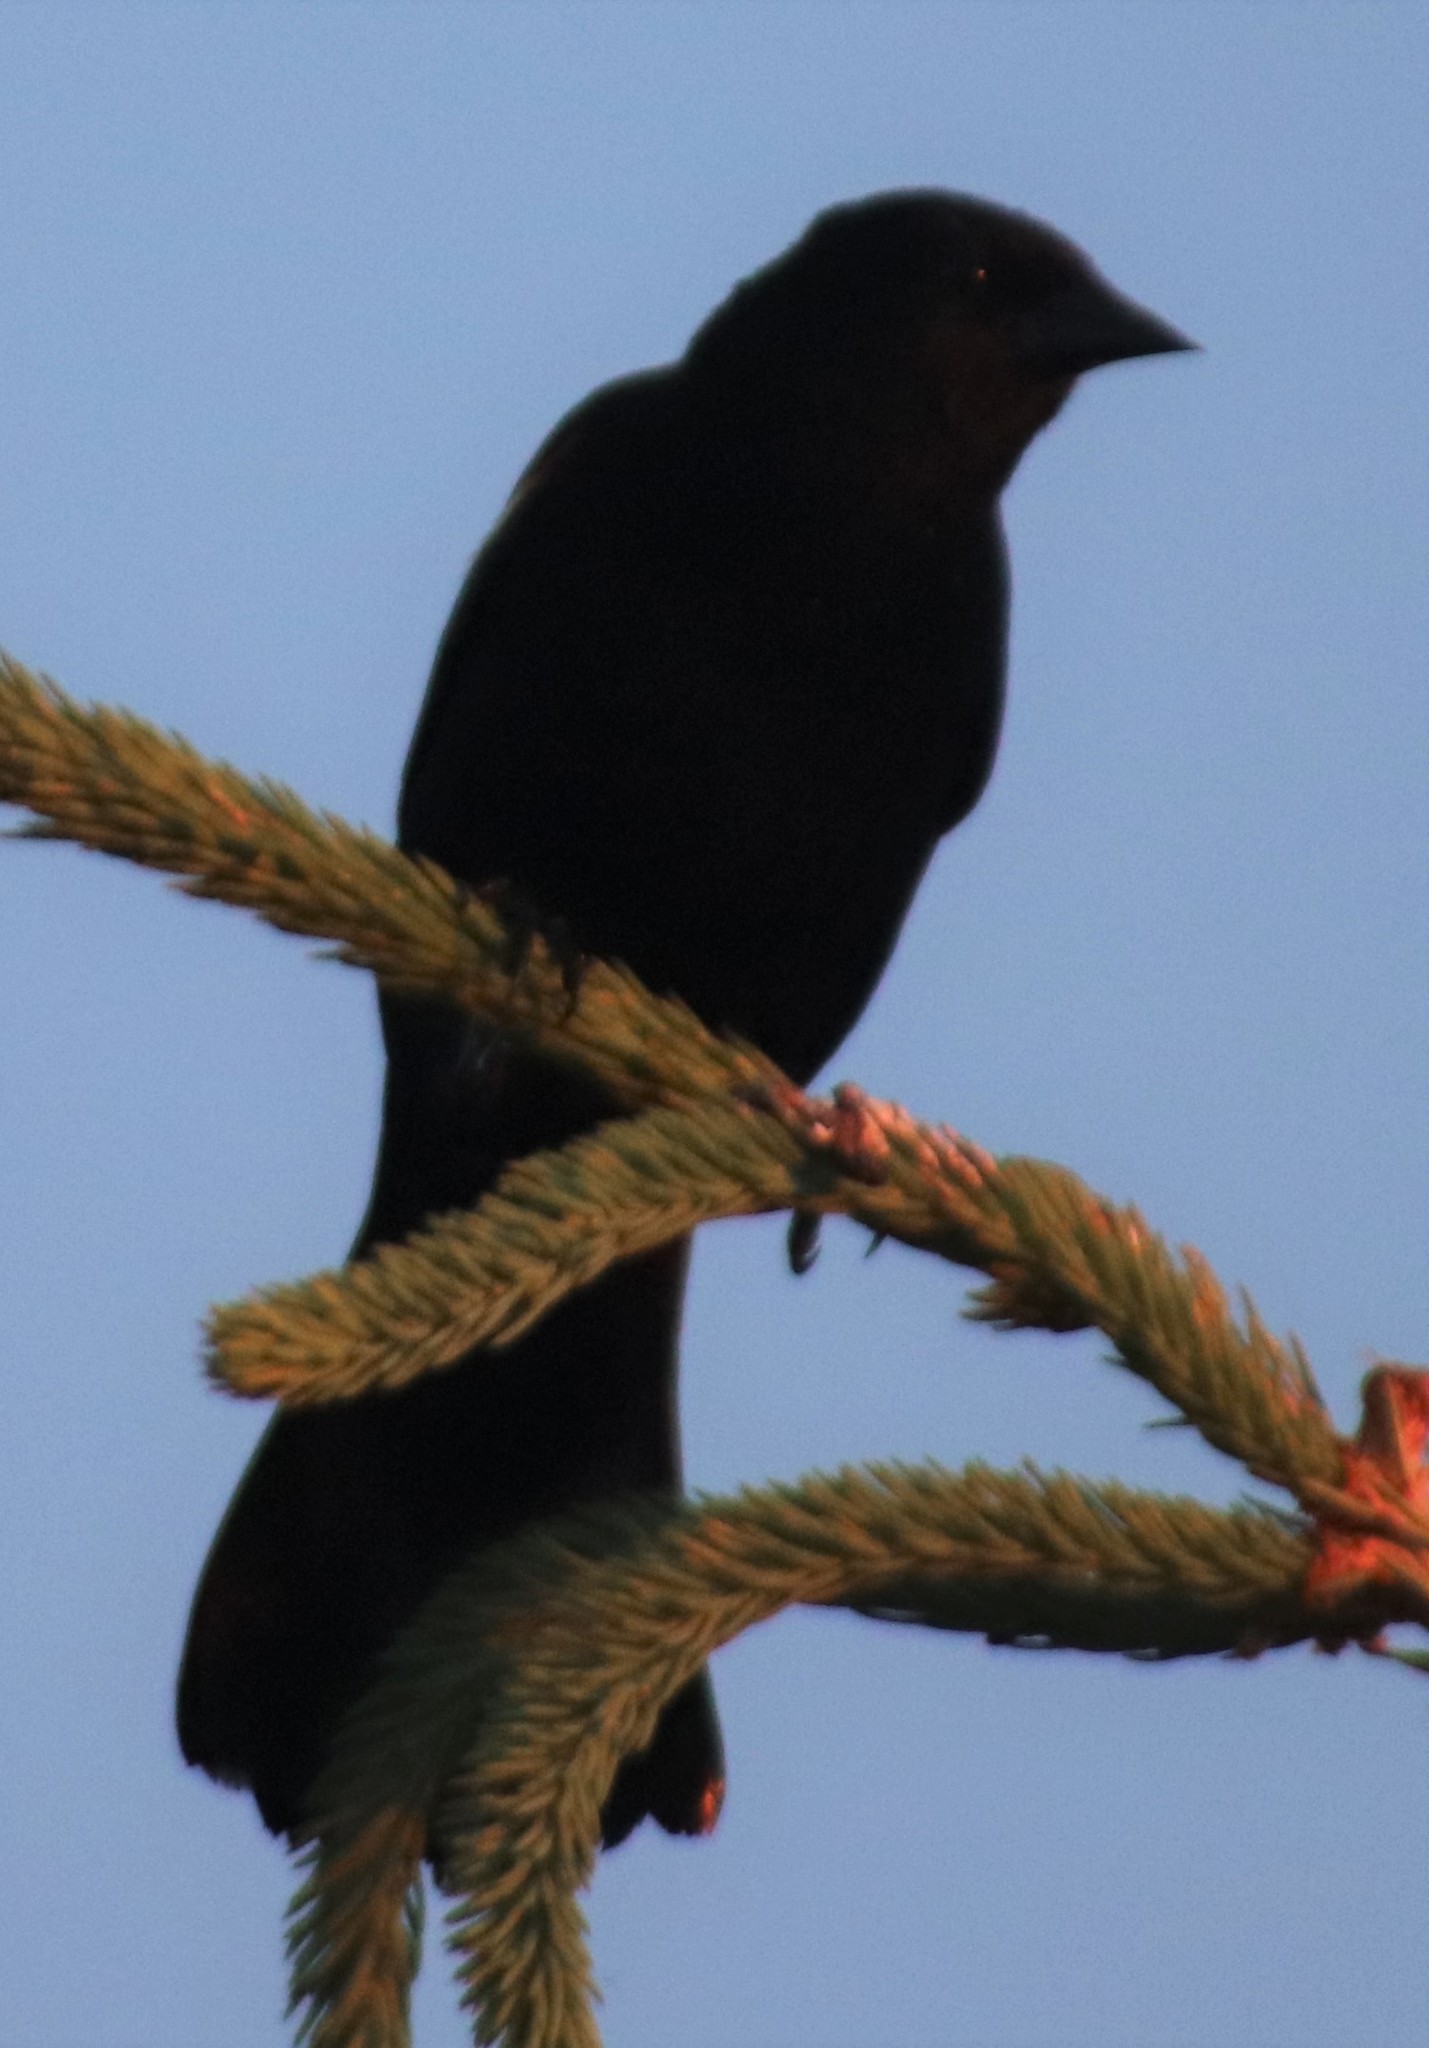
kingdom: Animalia
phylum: Chordata
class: Aves
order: Passeriformes
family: Icteridae
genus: Agelaius
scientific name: Agelaius phoeniceus
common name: Red-winged blackbird
